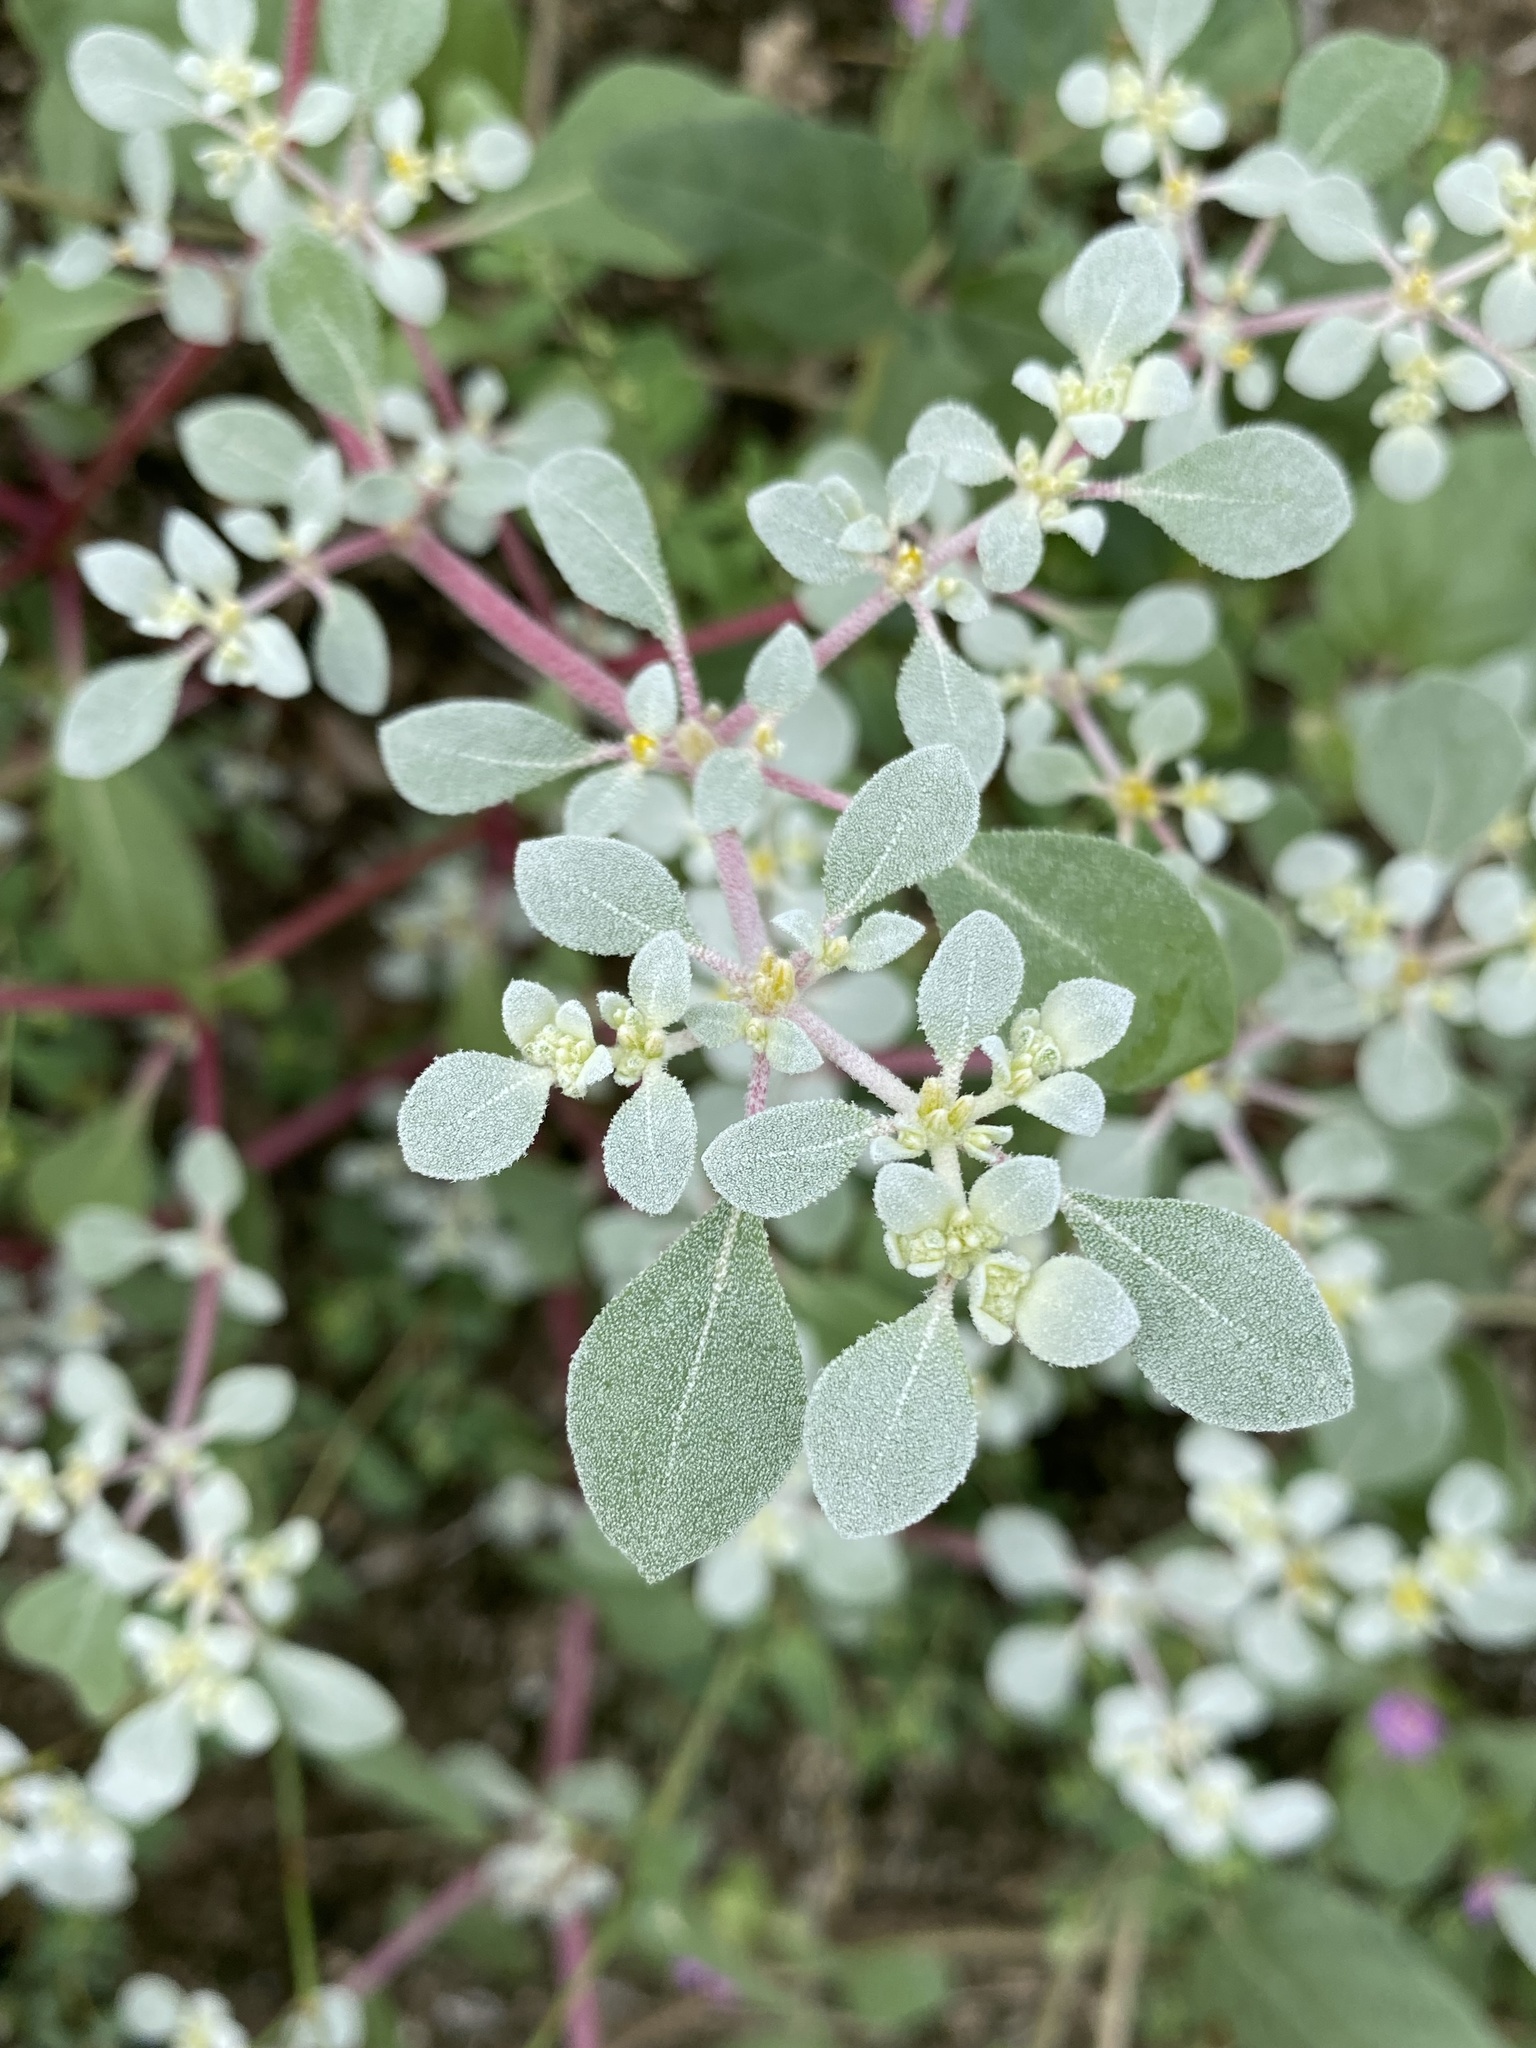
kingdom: Plantae
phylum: Tracheophyta
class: Magnoliopsida
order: Caryophyllales
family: Amaranthaceae
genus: Tidestromia
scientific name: Tidestromia lanuginosa
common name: Woolly tidestromia
